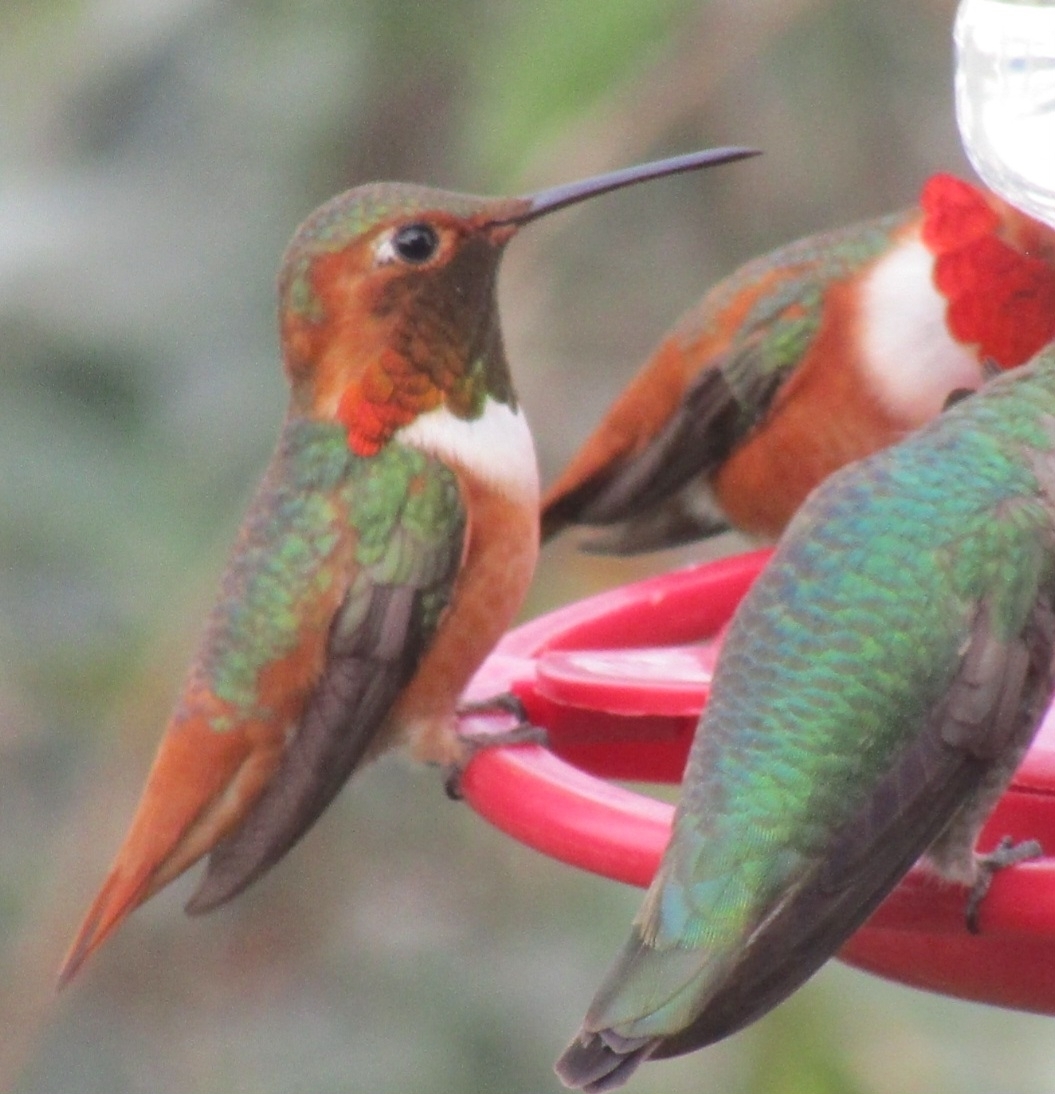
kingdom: Animalia
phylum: Chordata
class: Aves
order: Apodiformes
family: Trochilidae
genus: Selasphorus
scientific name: Selasphorus sasin
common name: Allen's hummingbird
